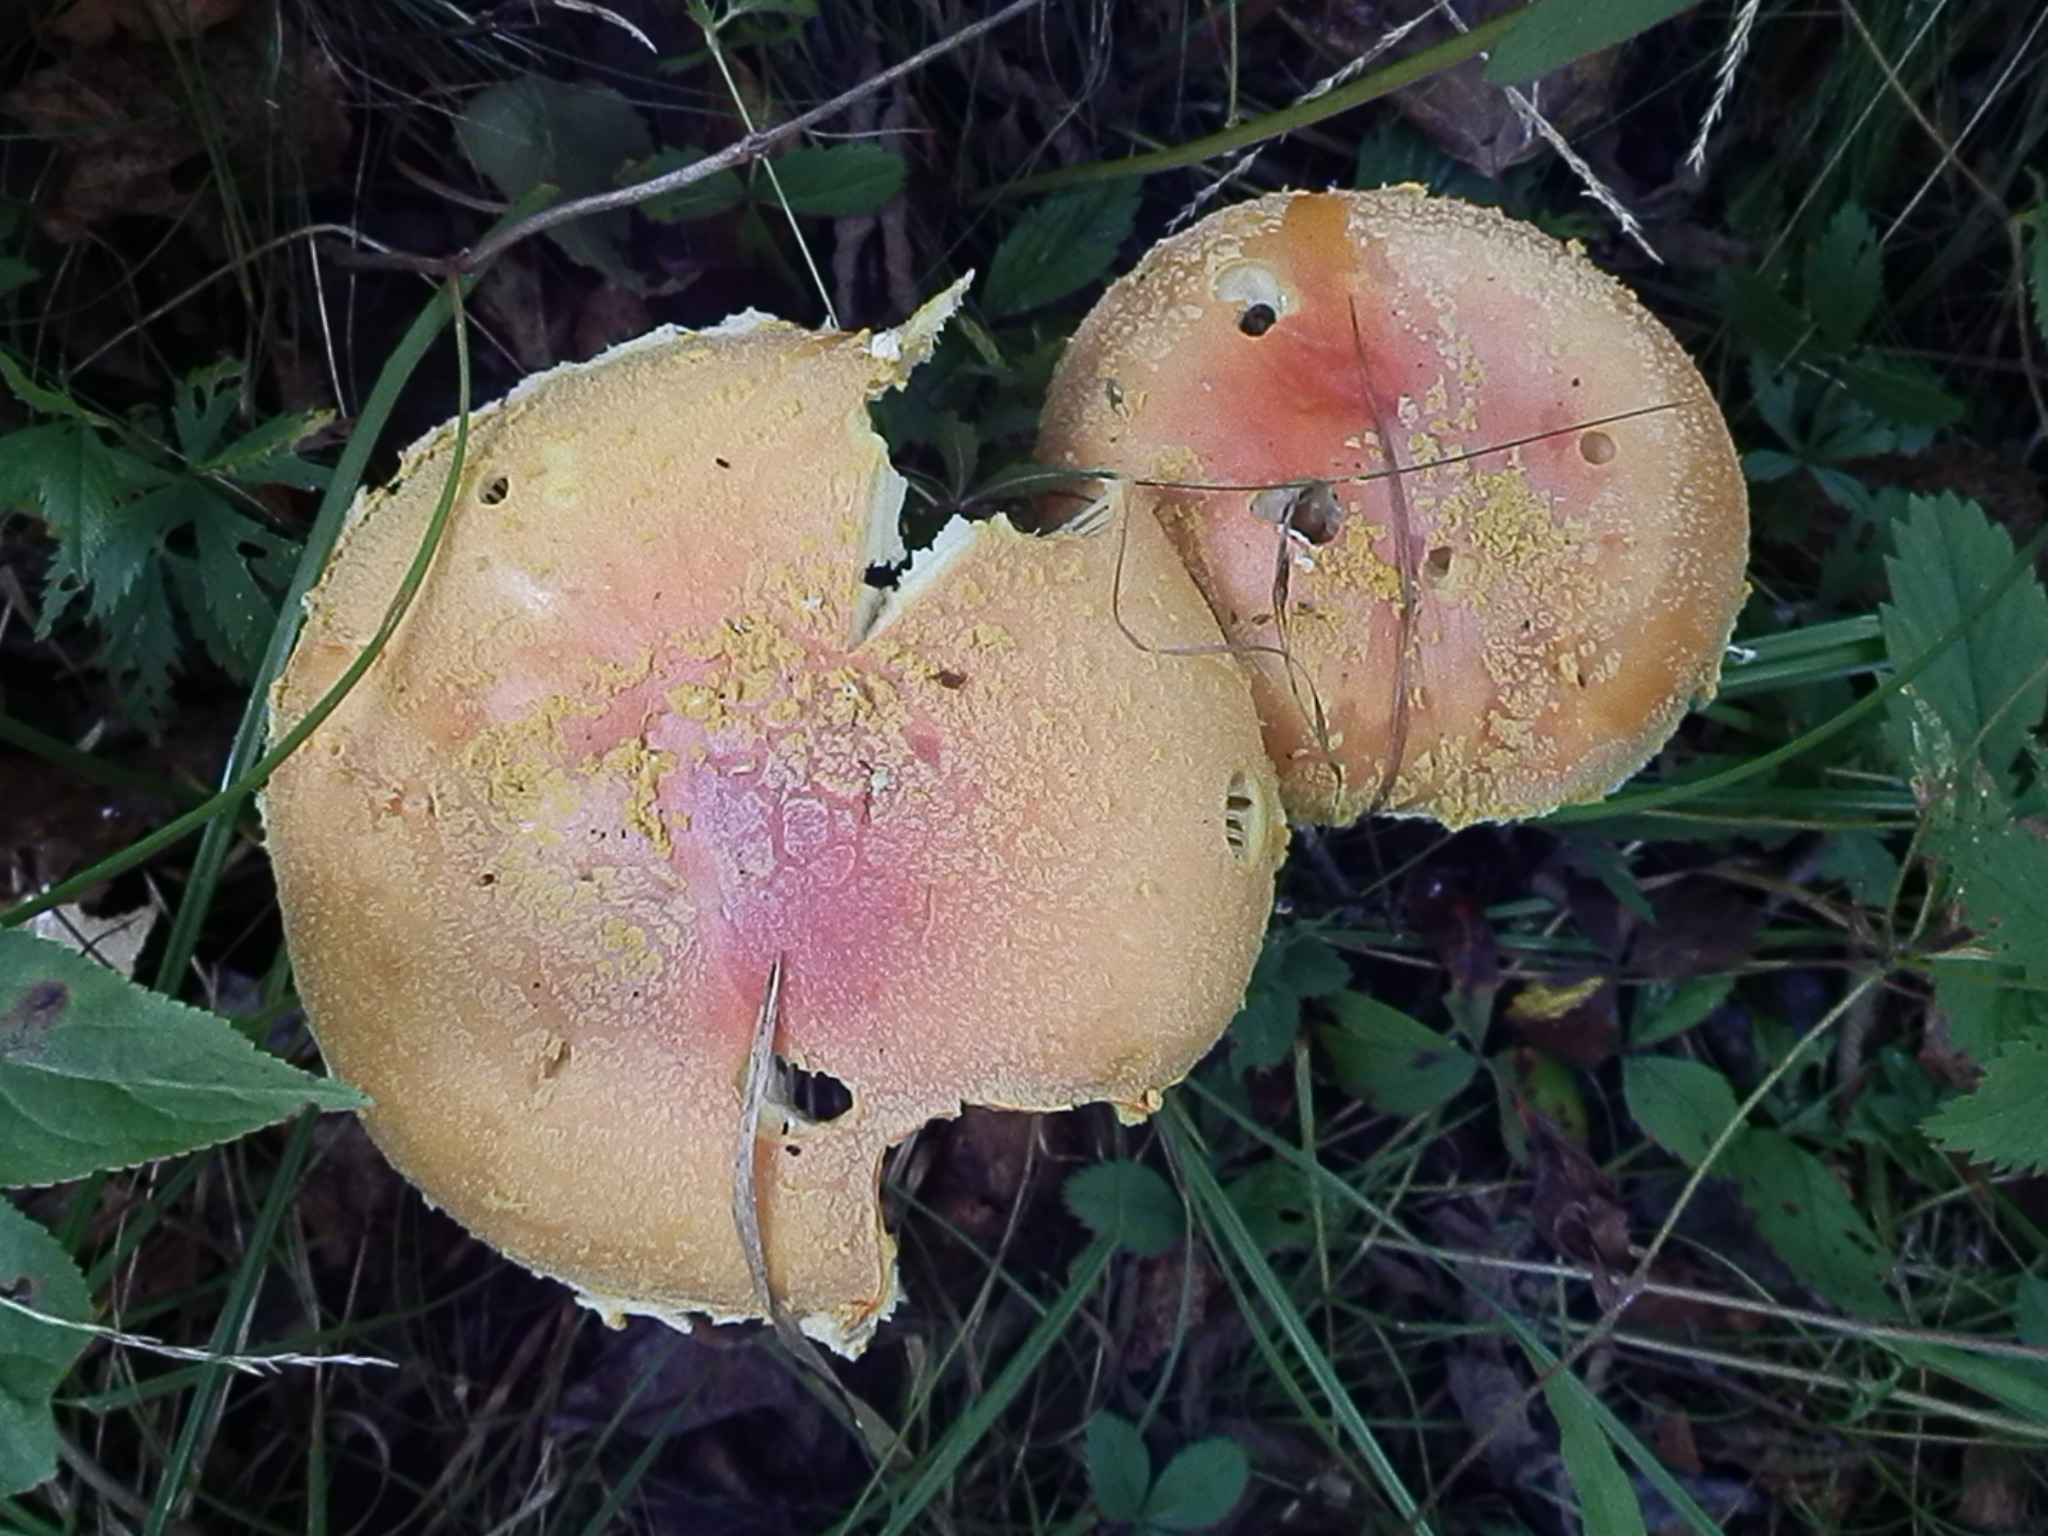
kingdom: Fungi
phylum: Basidiomycota
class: Agaricomycetes
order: Agaricales
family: Amanitaceae
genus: Amanita
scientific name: Amanita wellsii
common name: Salmon amanita
